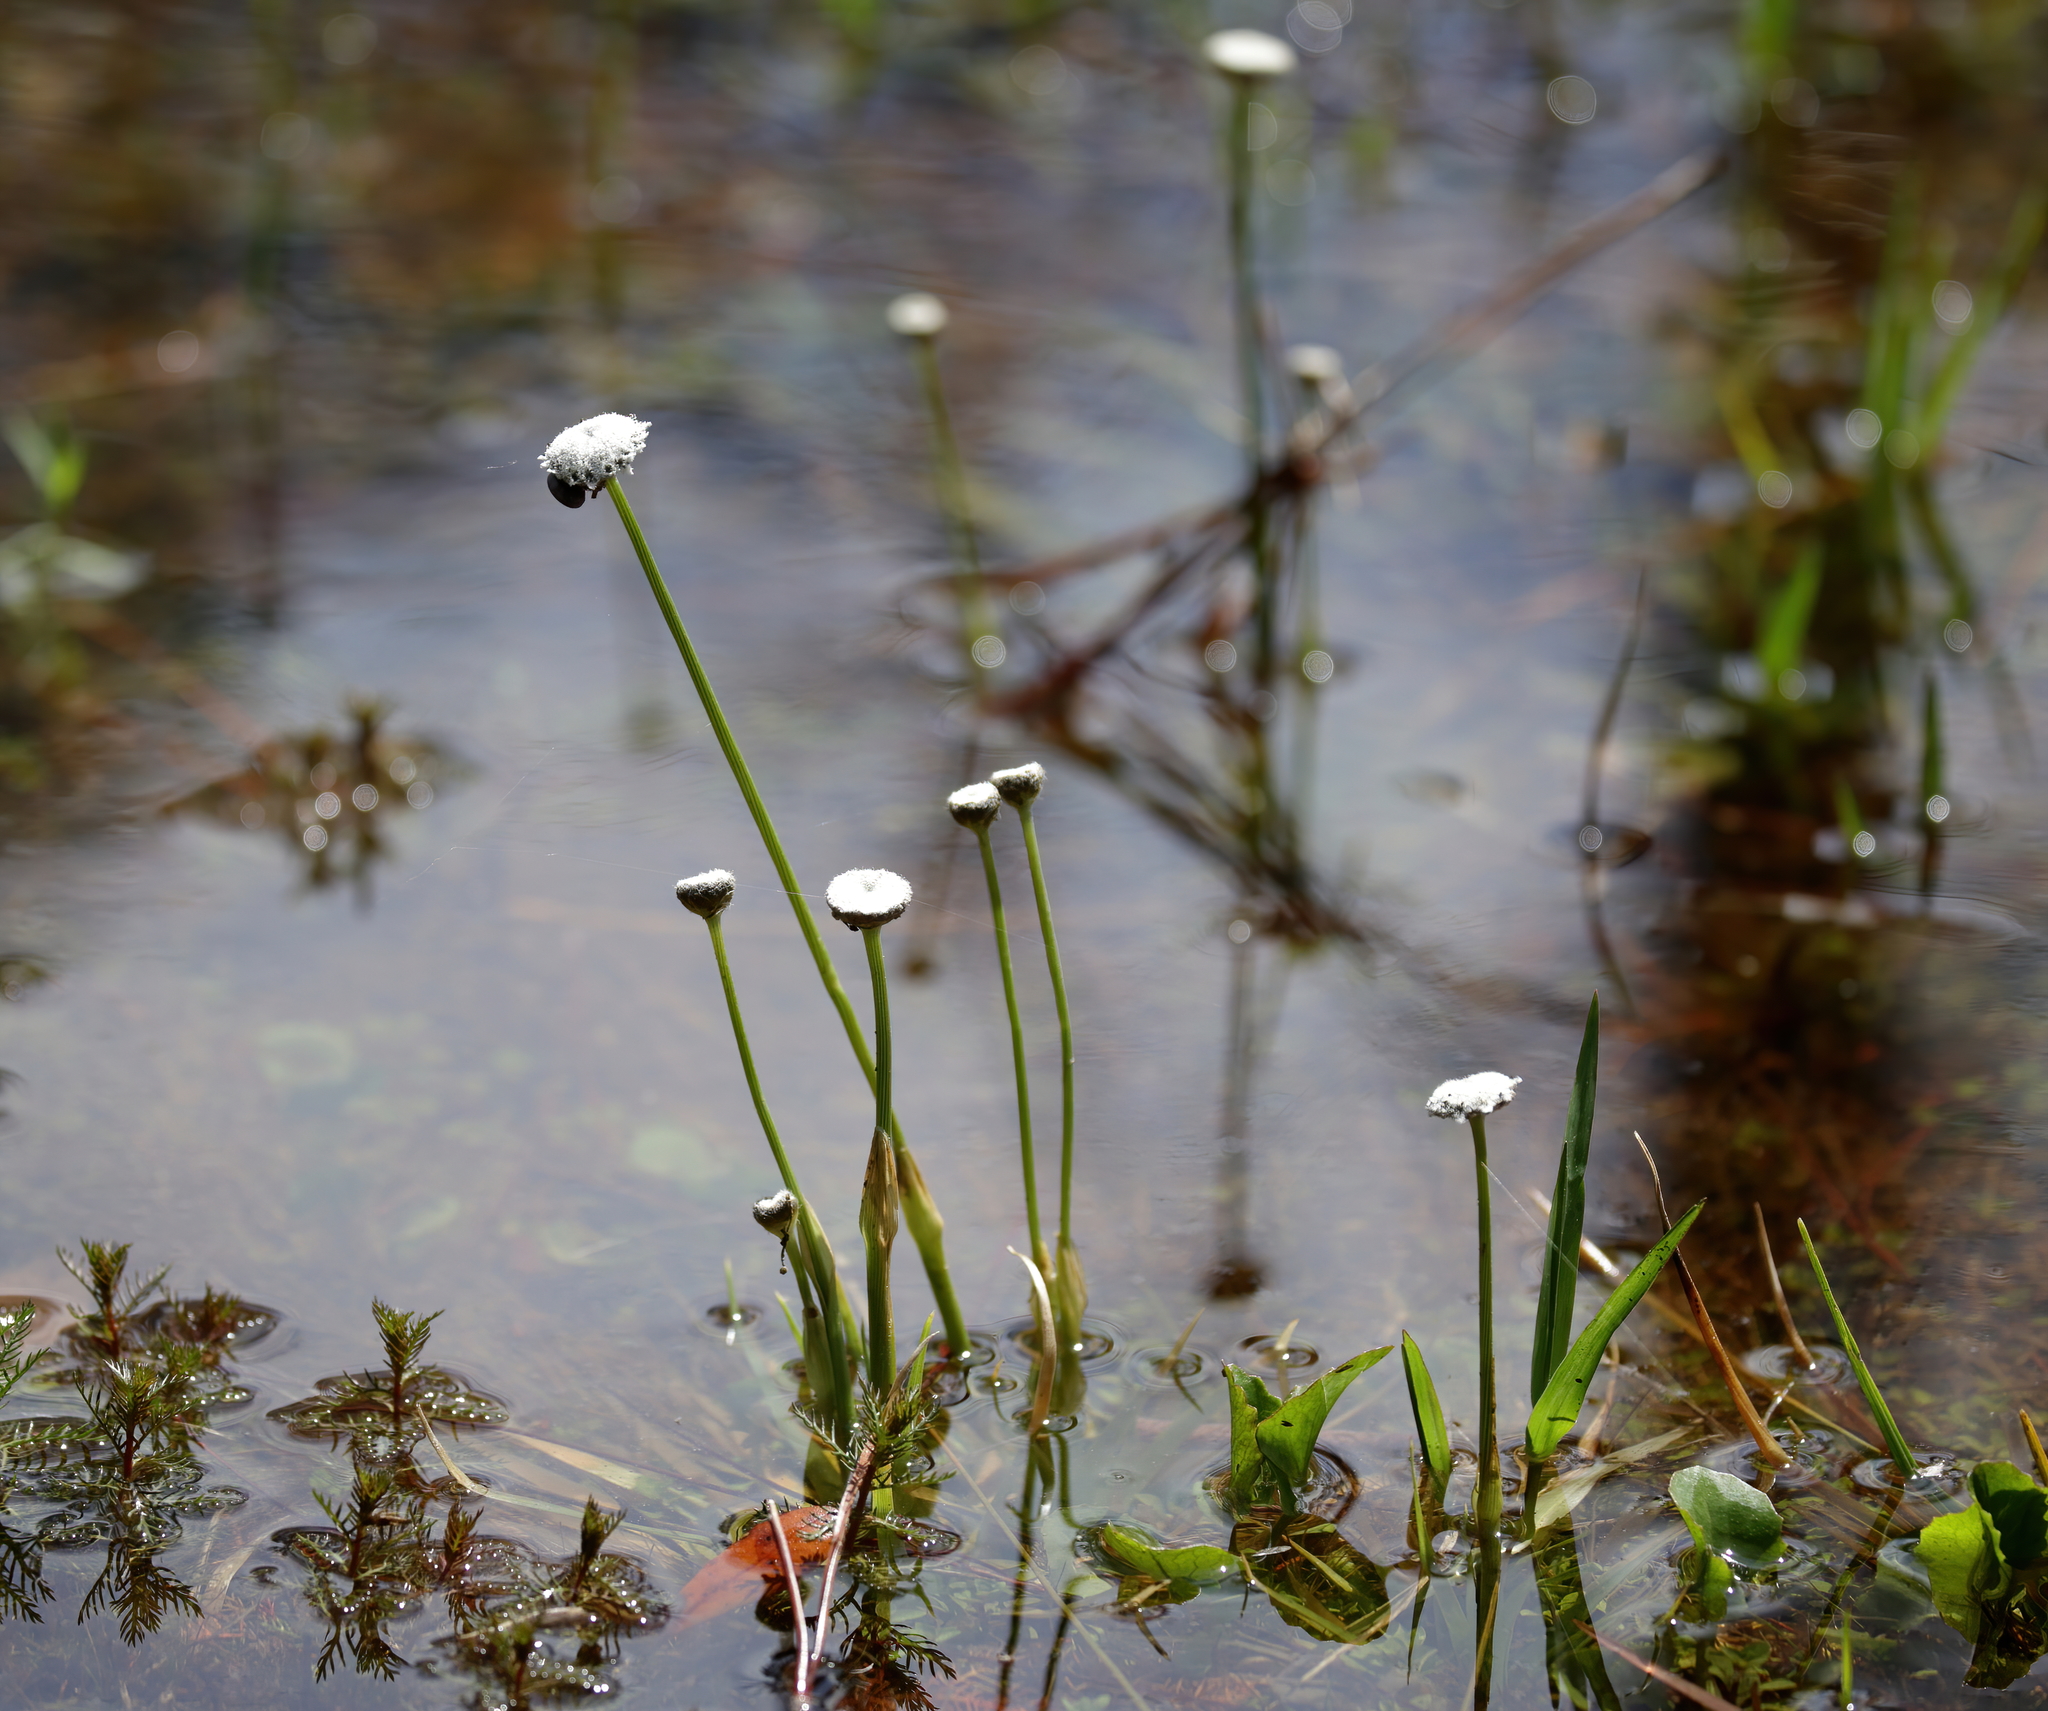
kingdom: Plantae
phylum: Tracheophyta
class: Liliopsida
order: Poales
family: Eriocaulaceae
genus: Eriocaulon
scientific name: Eriocaulon compressum
